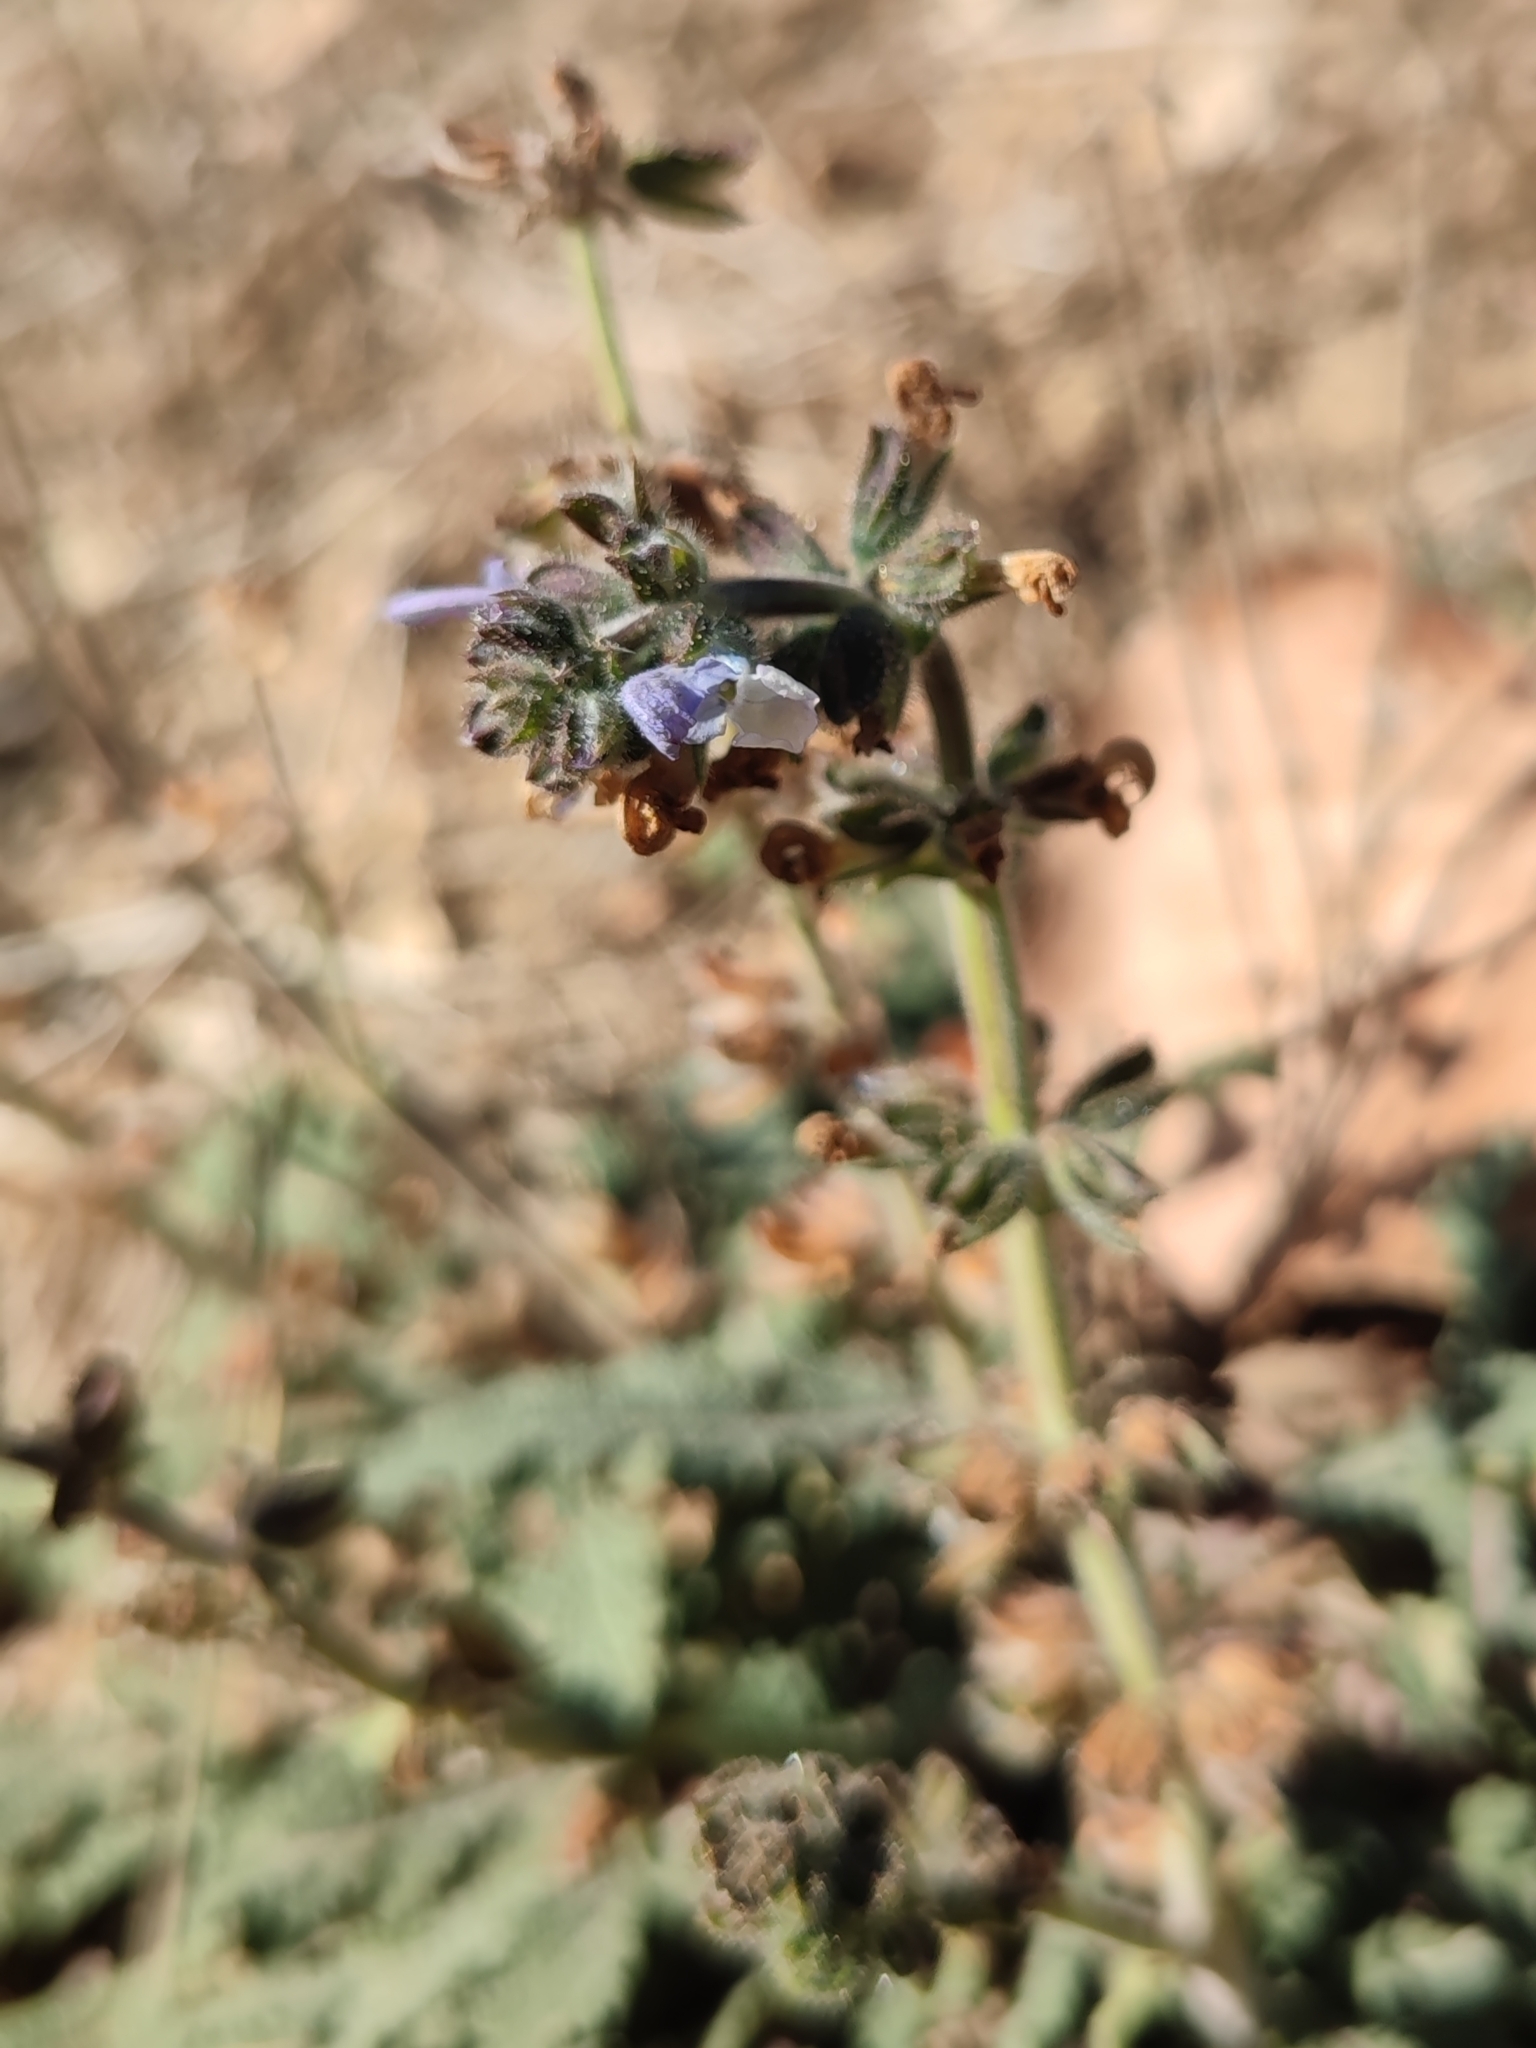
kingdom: Plantae
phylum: Tracheophyta
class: Magnoliopsida
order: Lamiales
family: Lamiaceae
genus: Salvia
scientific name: Salvia verbenaca
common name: Wild clary
